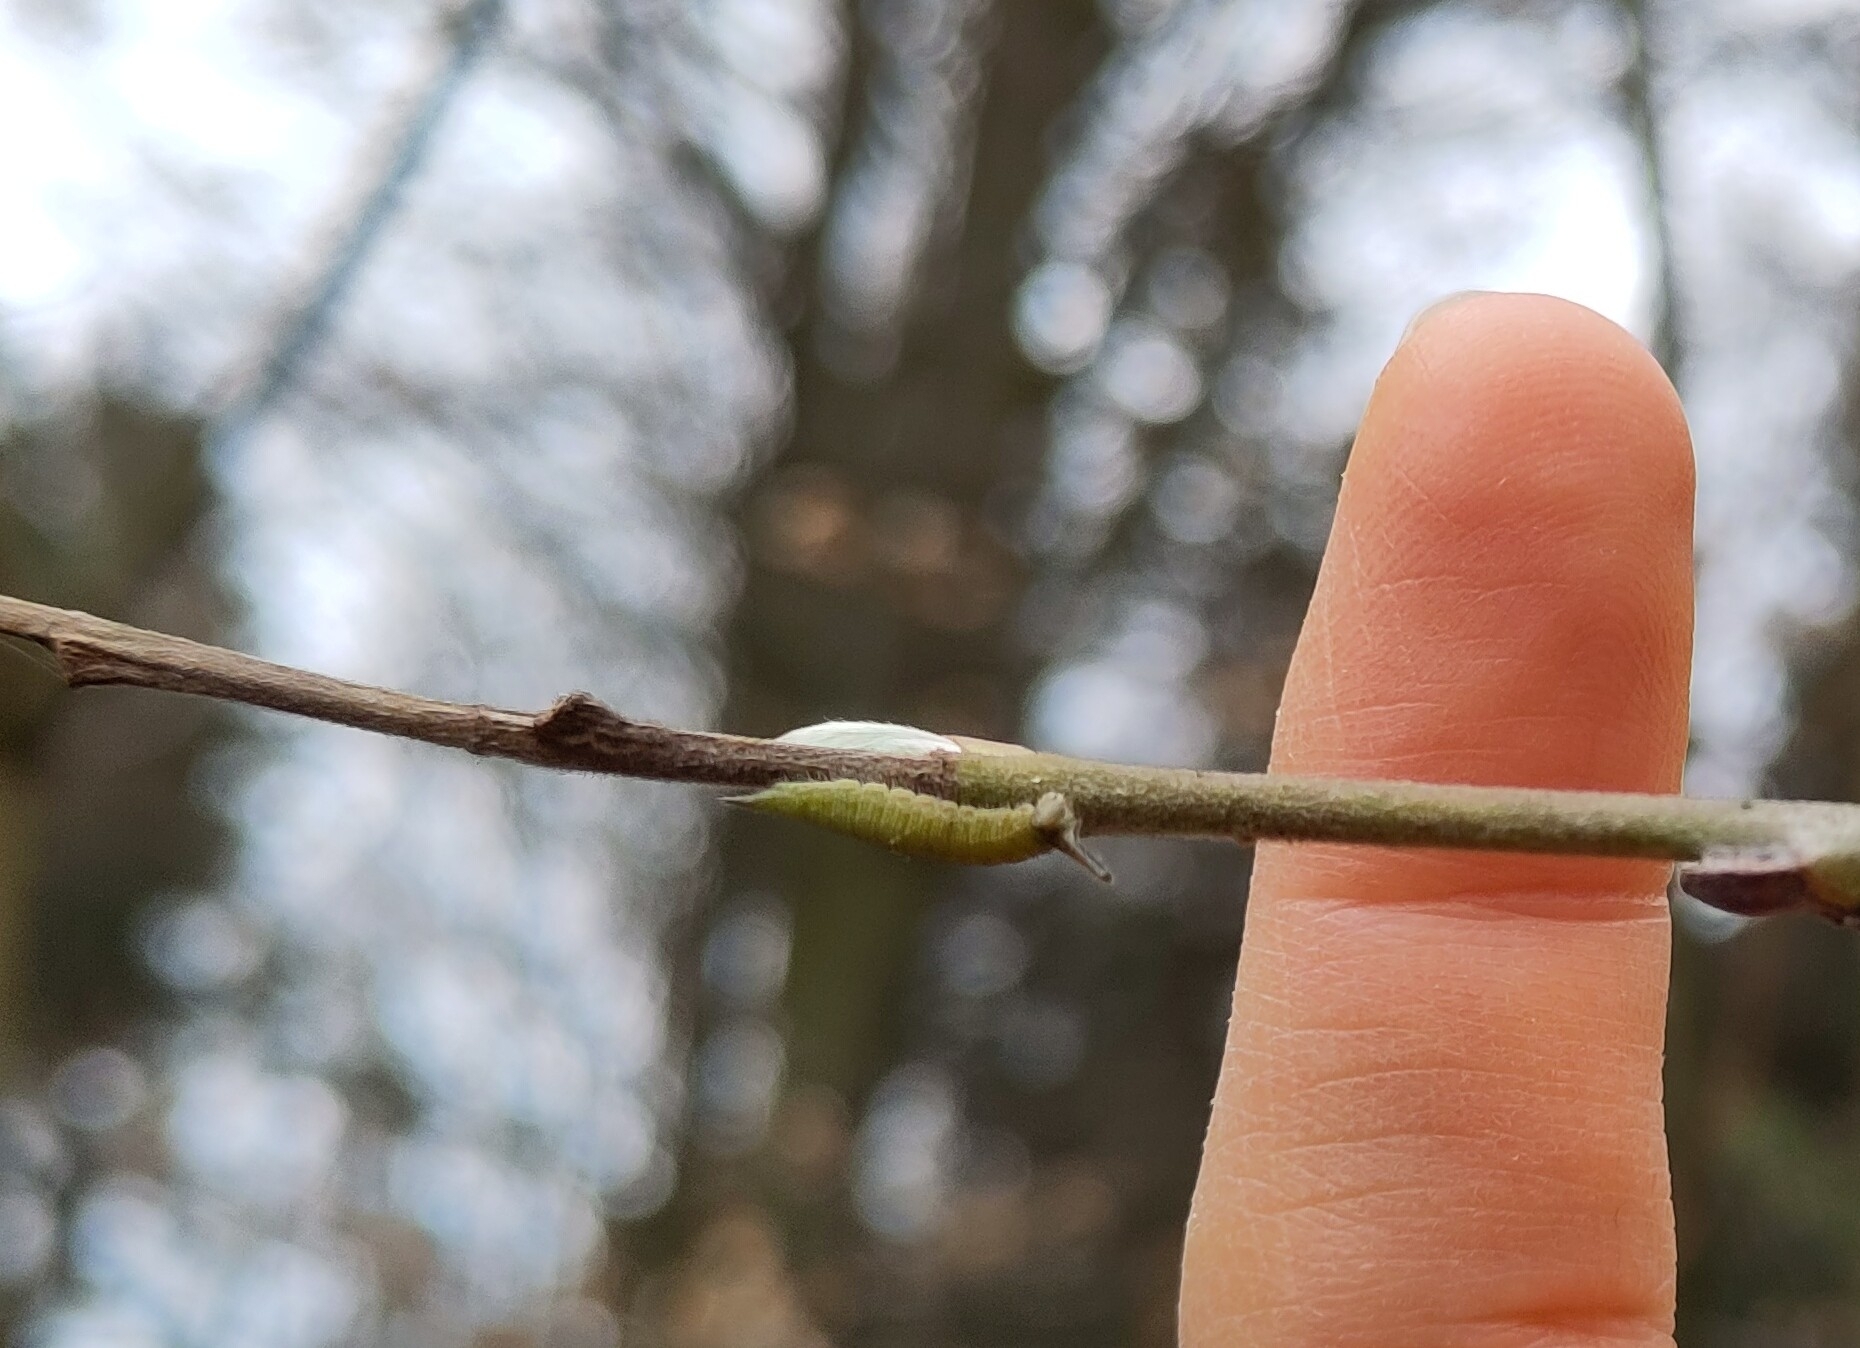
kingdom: Animalia
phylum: Arthropoda
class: Insecta
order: Lepidoptera
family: Nymphalidae
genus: Apatura
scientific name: Apatura iris
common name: Purple emperor
